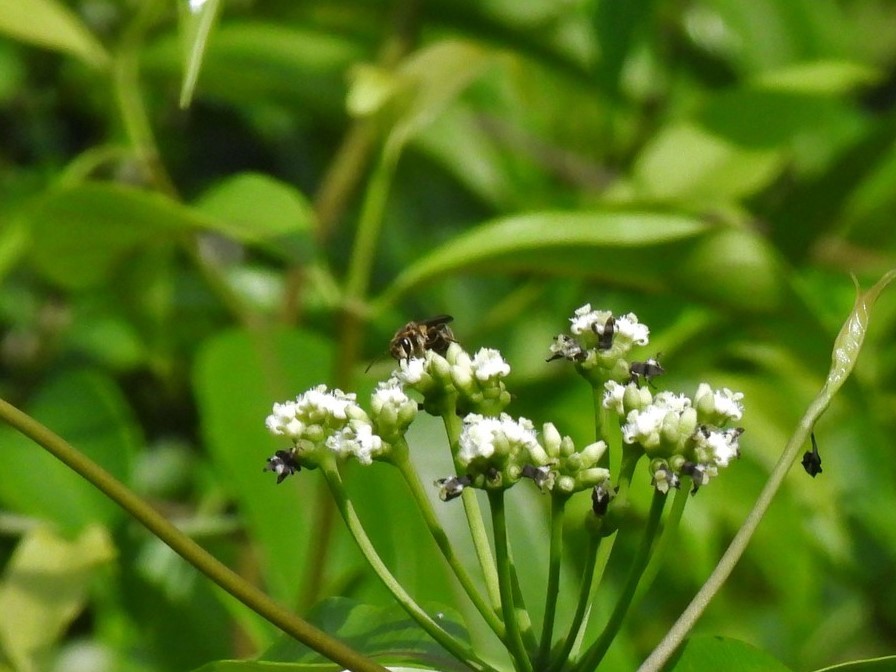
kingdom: Animalia
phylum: Arthropoda
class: Insecta
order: Hymenoptera
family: Halictidae
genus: Nomia
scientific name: Nomia strigata
